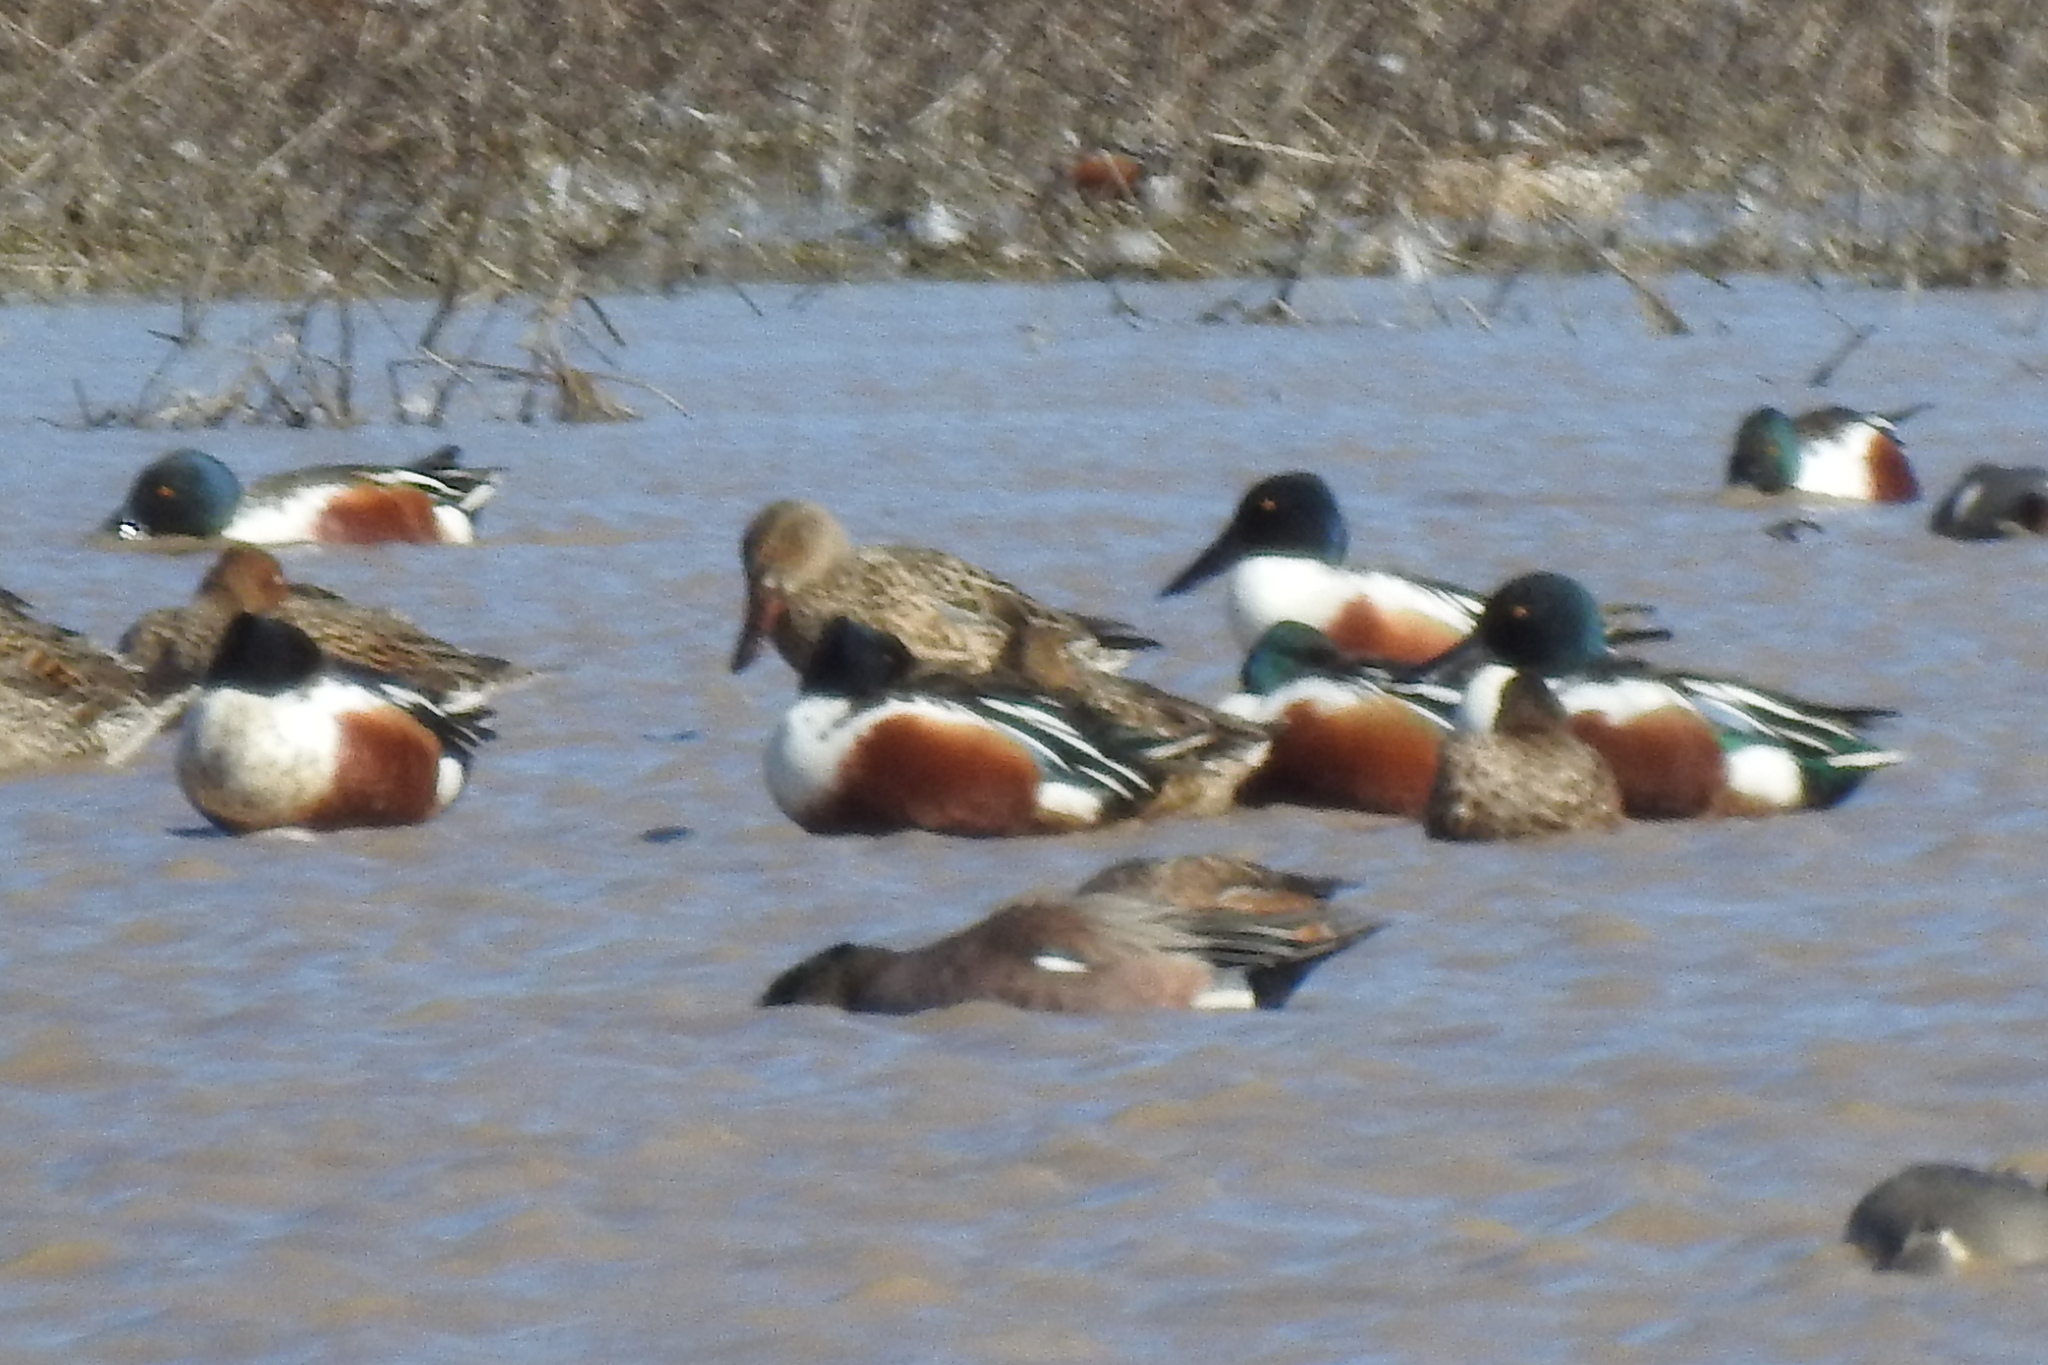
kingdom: Animalia
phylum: Chordata
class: Aves
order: Anseriformes
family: Anatidae
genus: Spatula
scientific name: Spatula clypeata
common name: Northern shoveler
